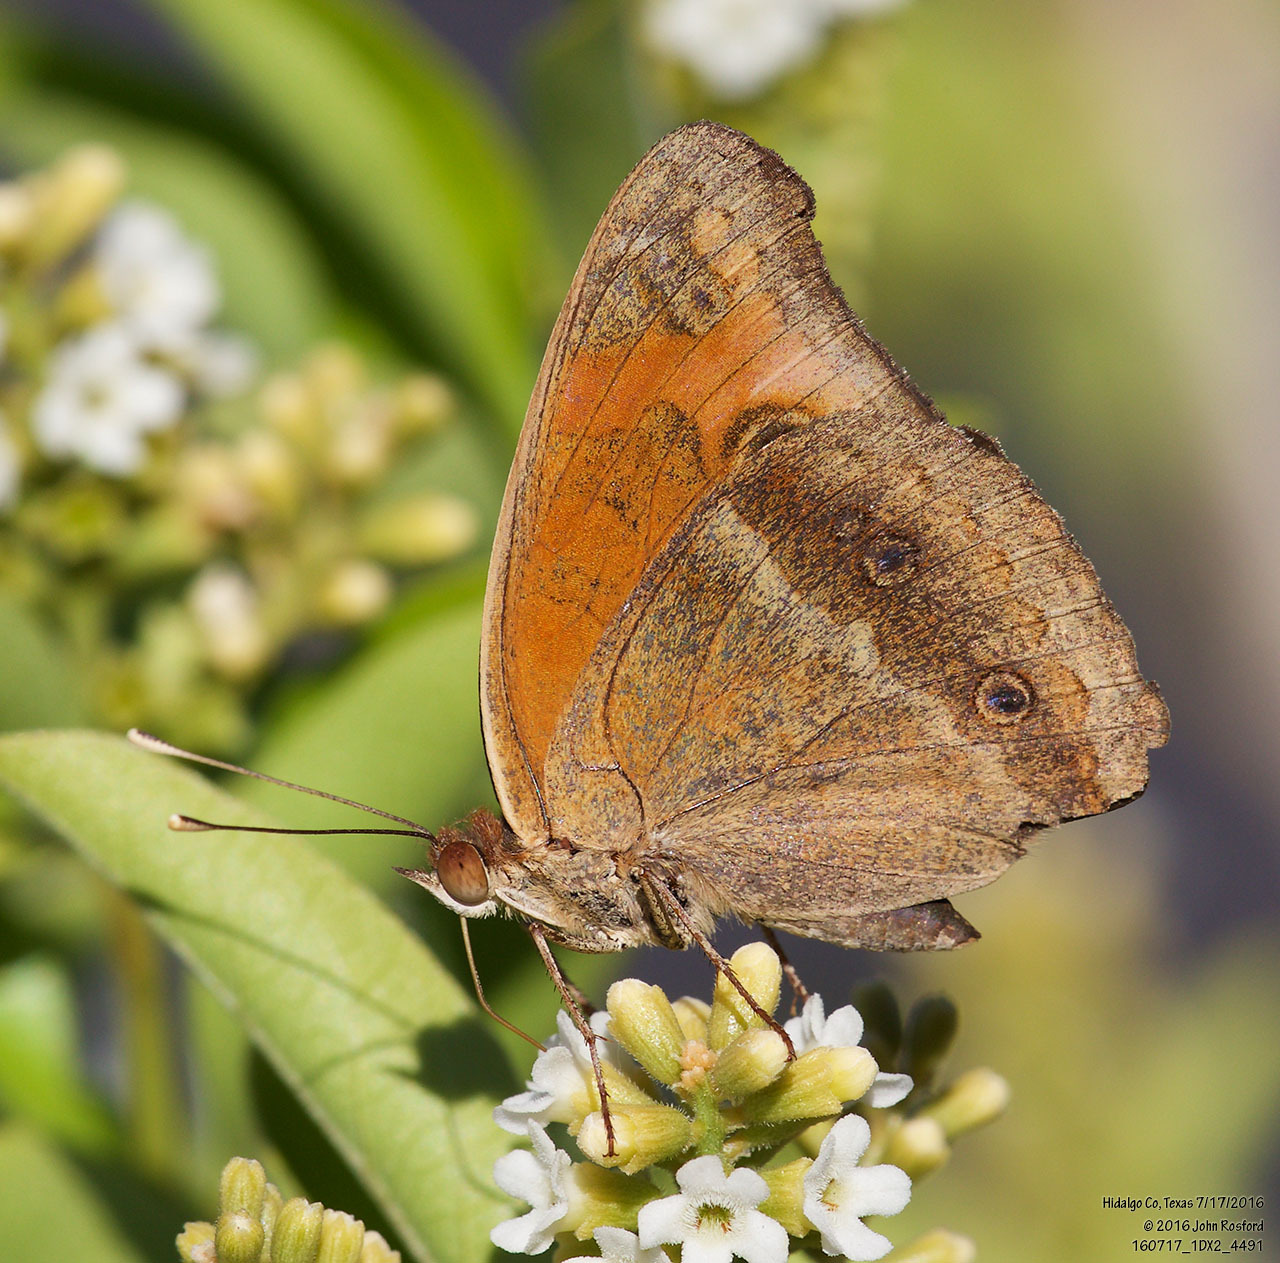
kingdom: Animalia
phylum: Arthropoda
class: Insecta
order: Lepidoptera
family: Nymphalidae
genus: Junonia
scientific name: Junonia stemosa
